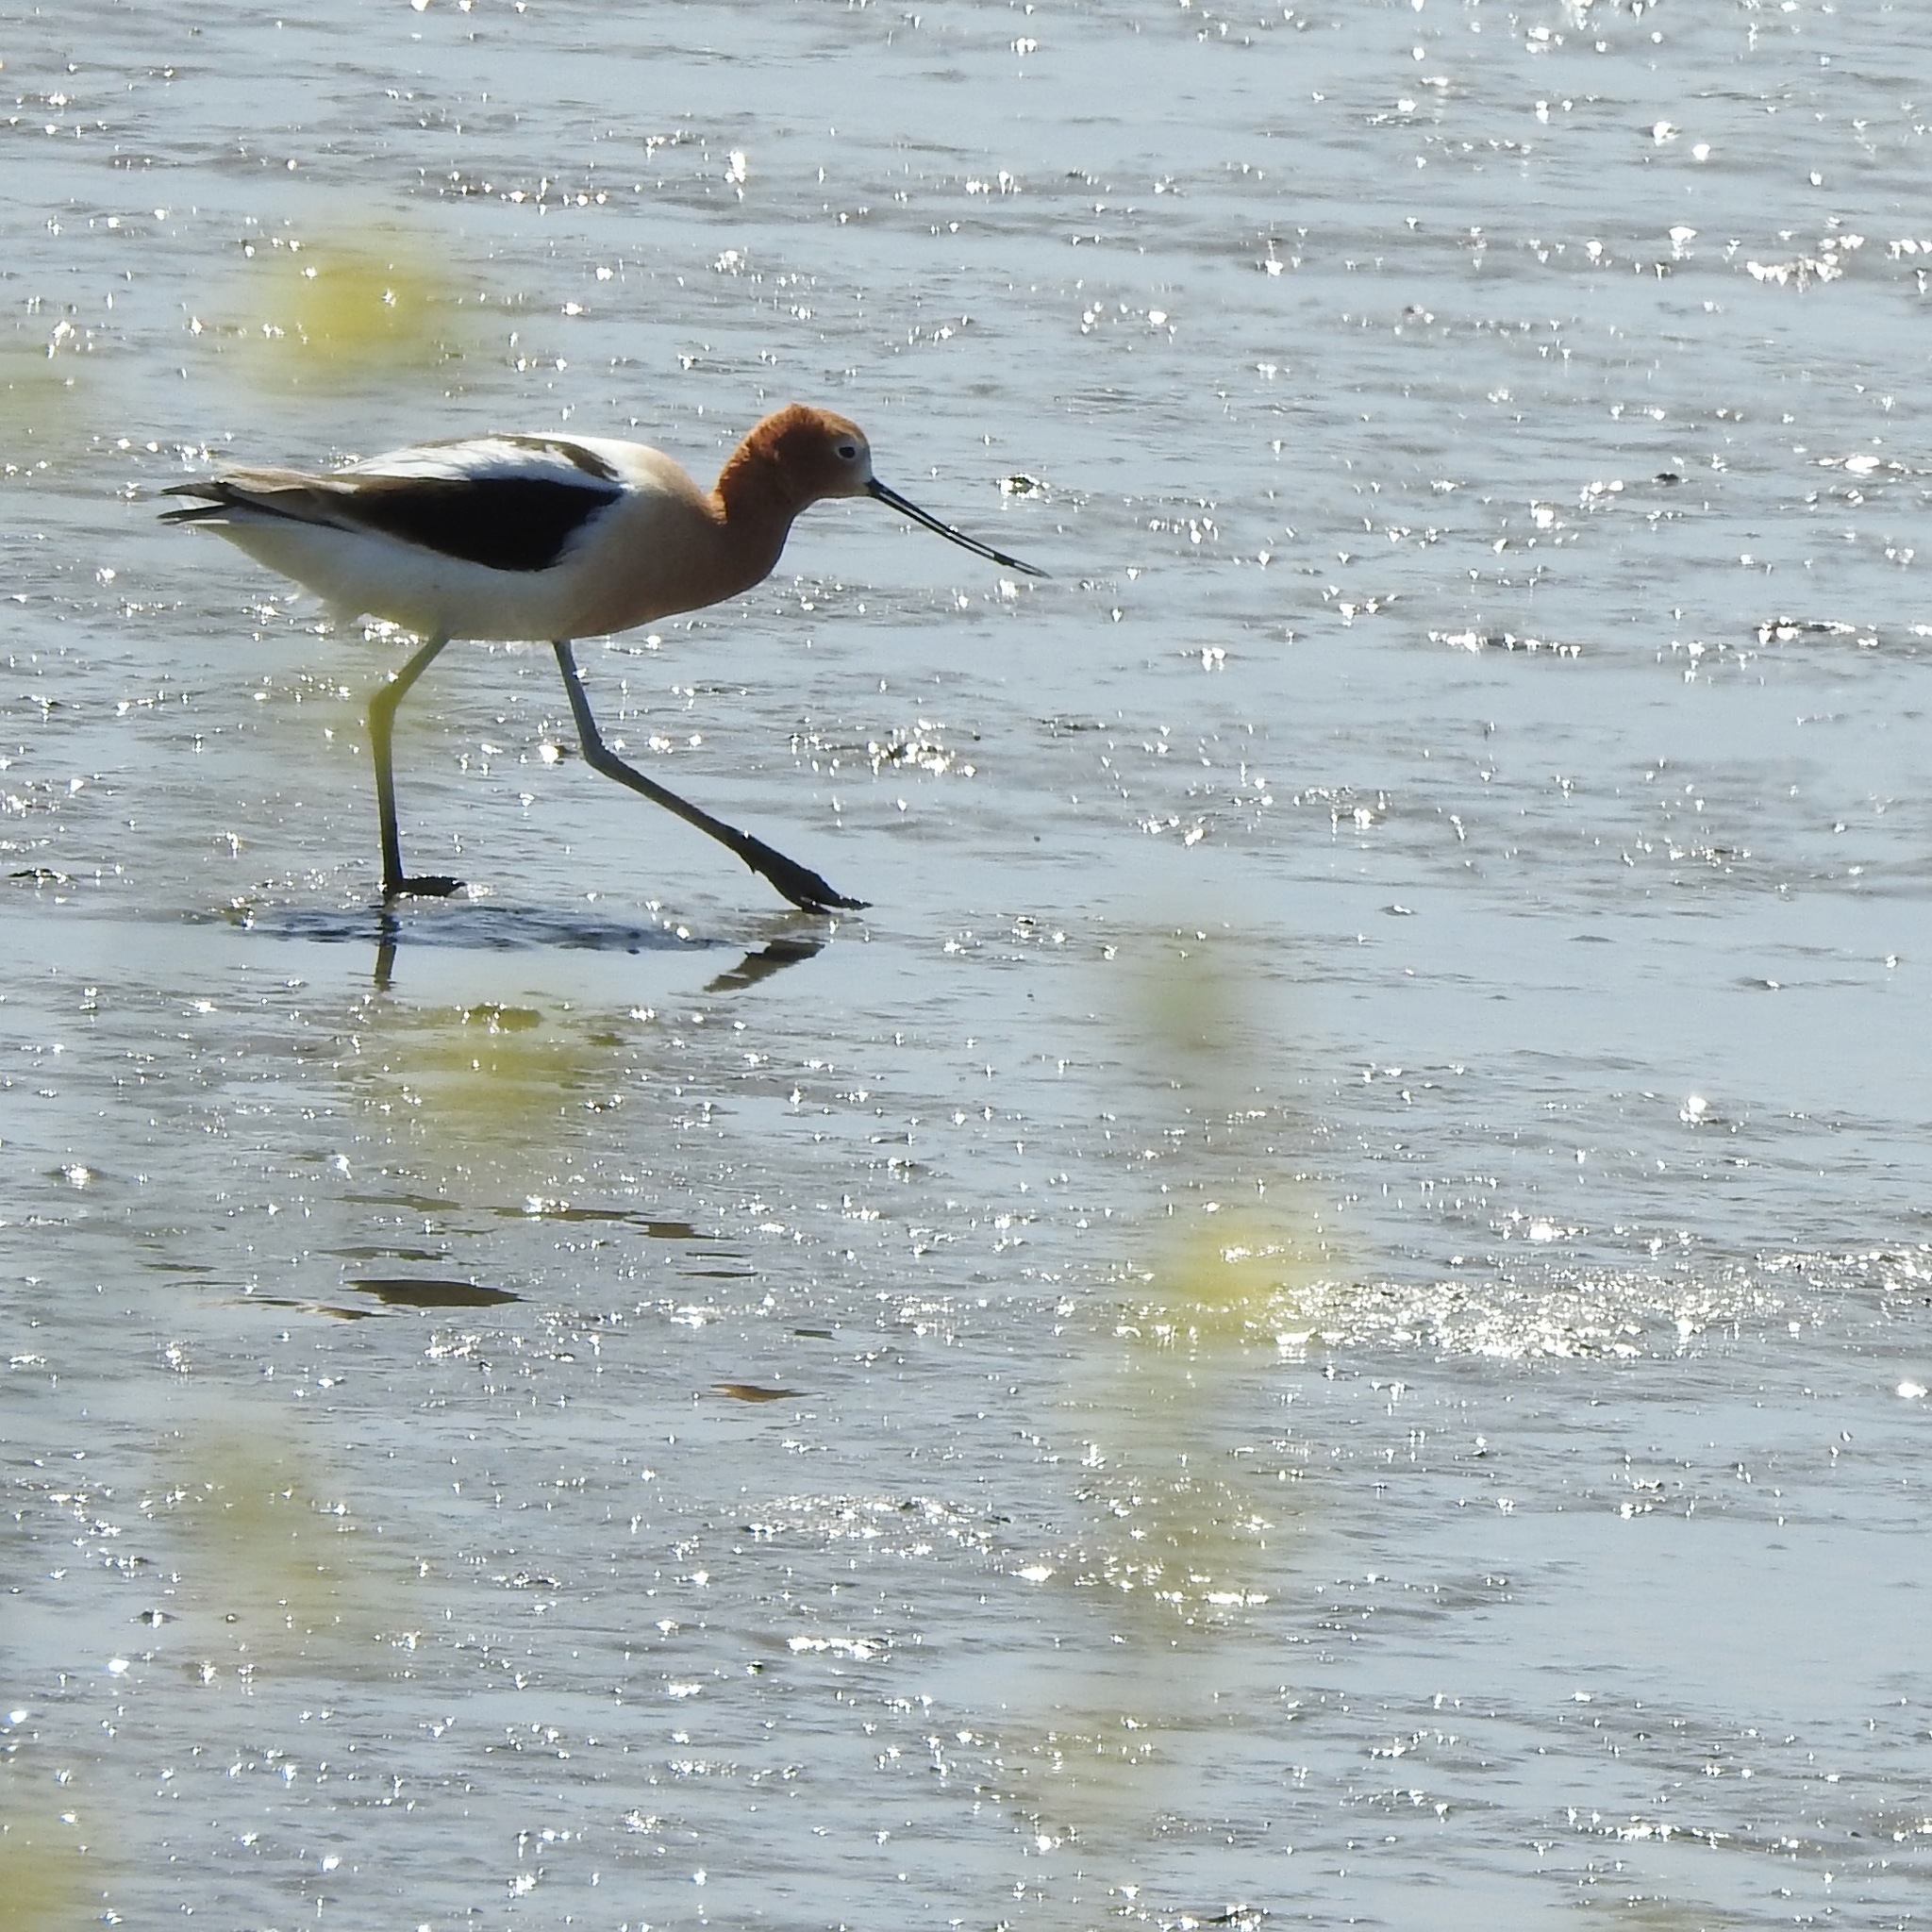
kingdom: Animalia
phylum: Chordata
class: Aves
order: Charadriiformes
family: Recurvirostridae
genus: Recurvirostra
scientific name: Recurvirostra americana
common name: American avocet
